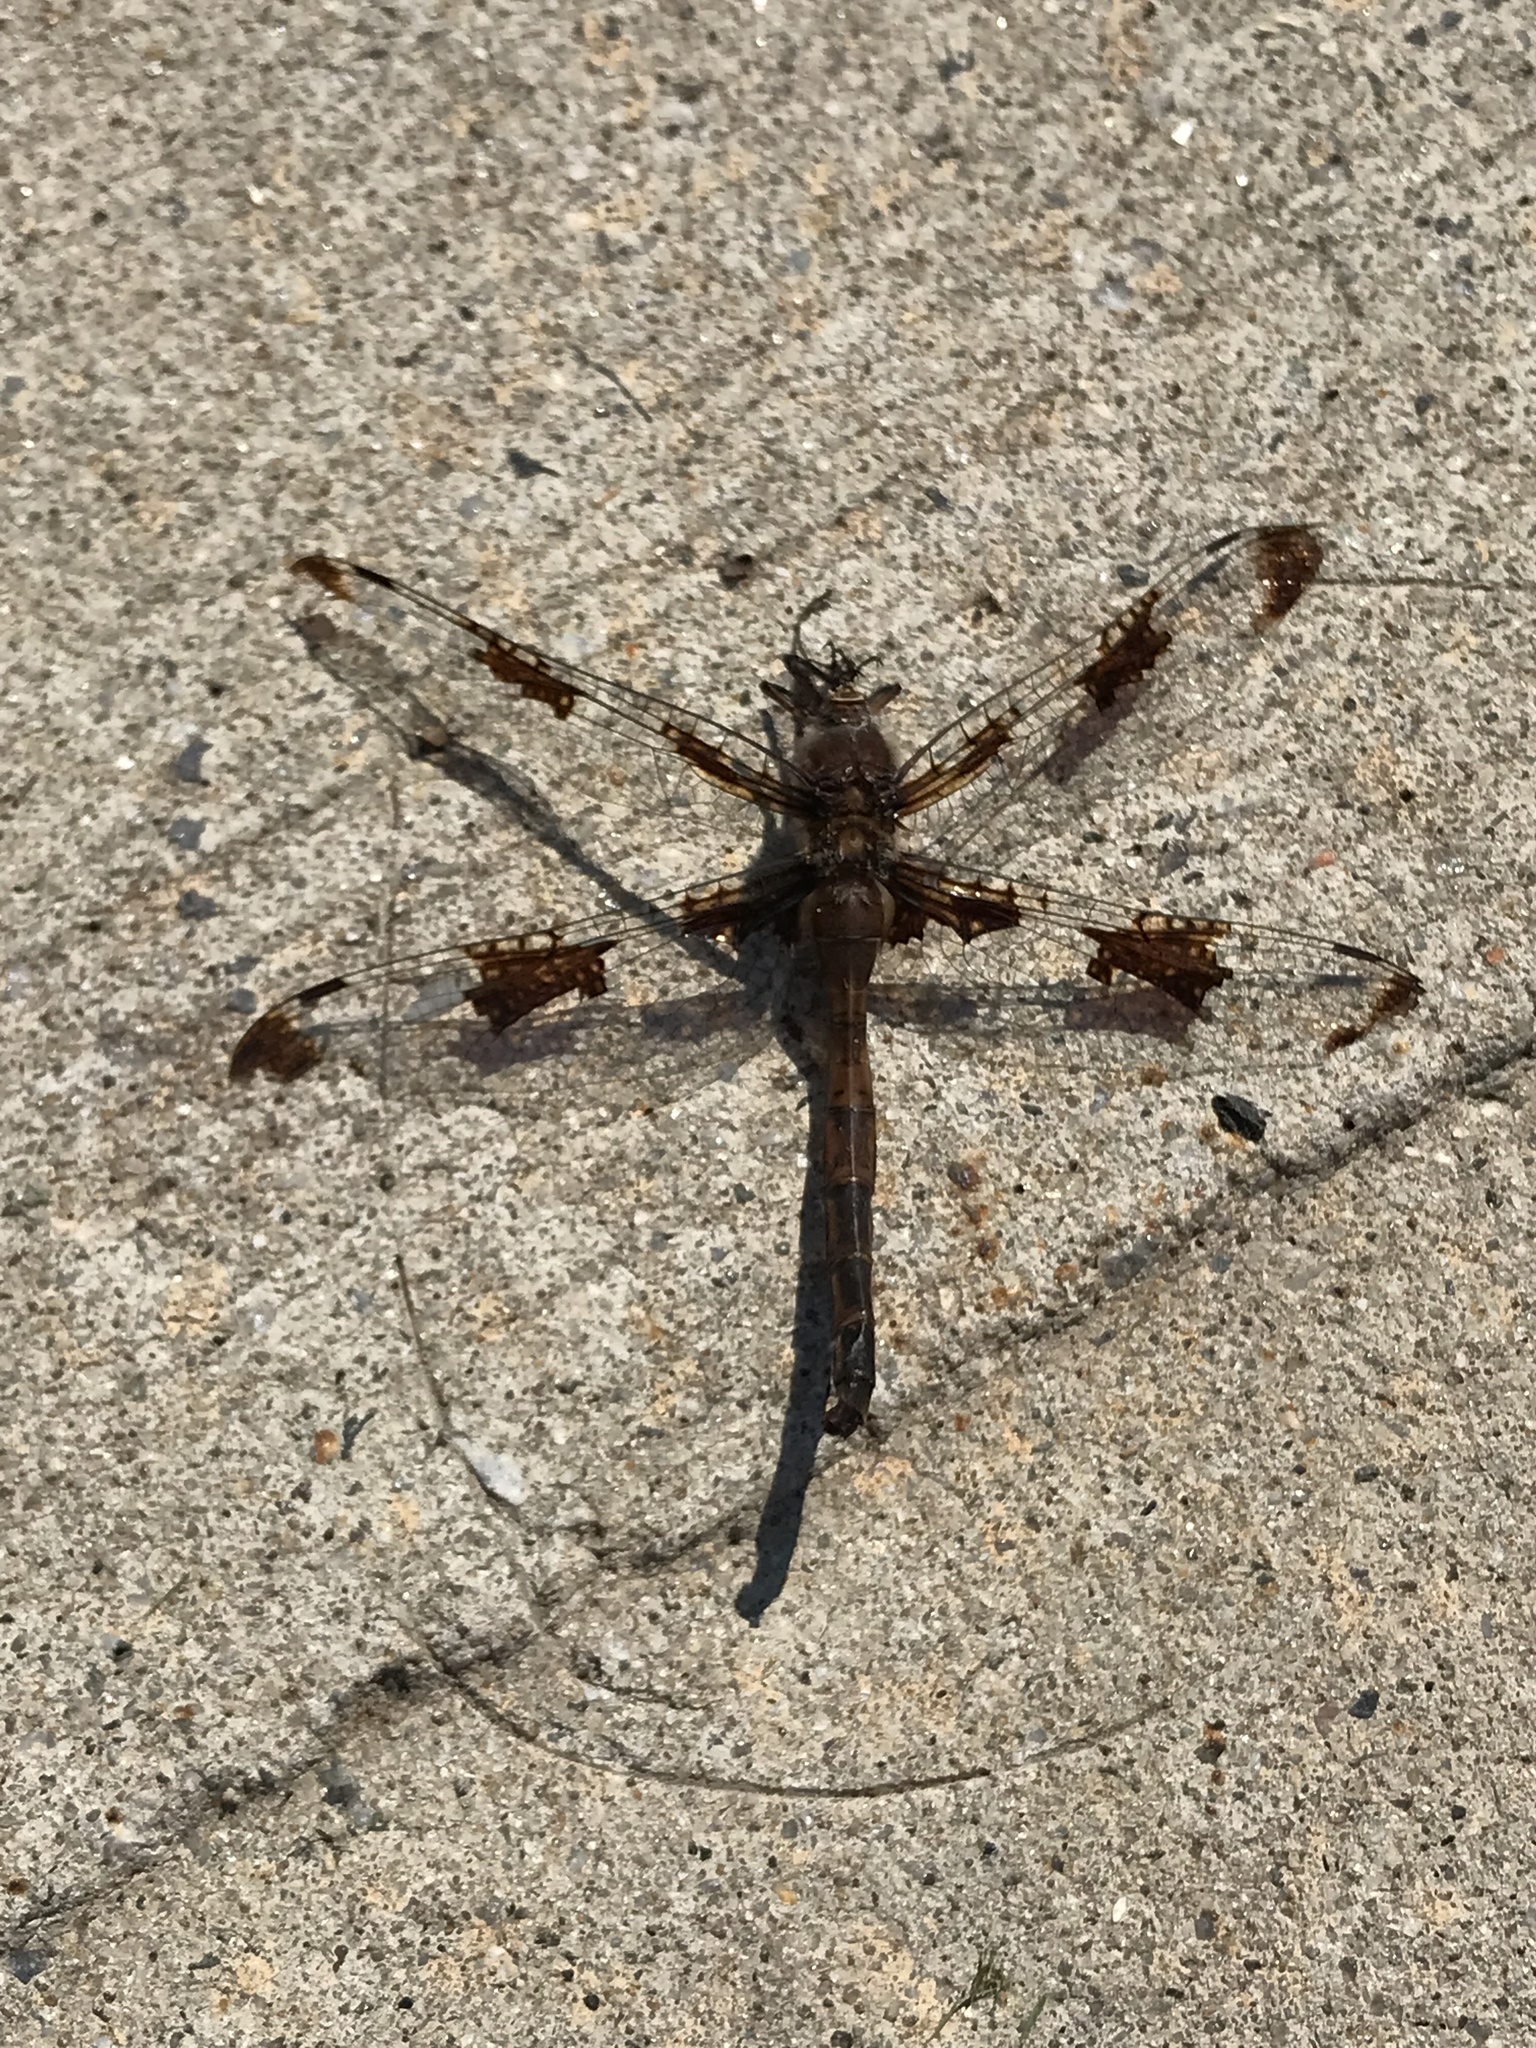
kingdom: Animalia
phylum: Arthropoda
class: Insecta
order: Odonata
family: Corduliidae
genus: Epitheca
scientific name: Epitheca princeps
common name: Prince baskettail
